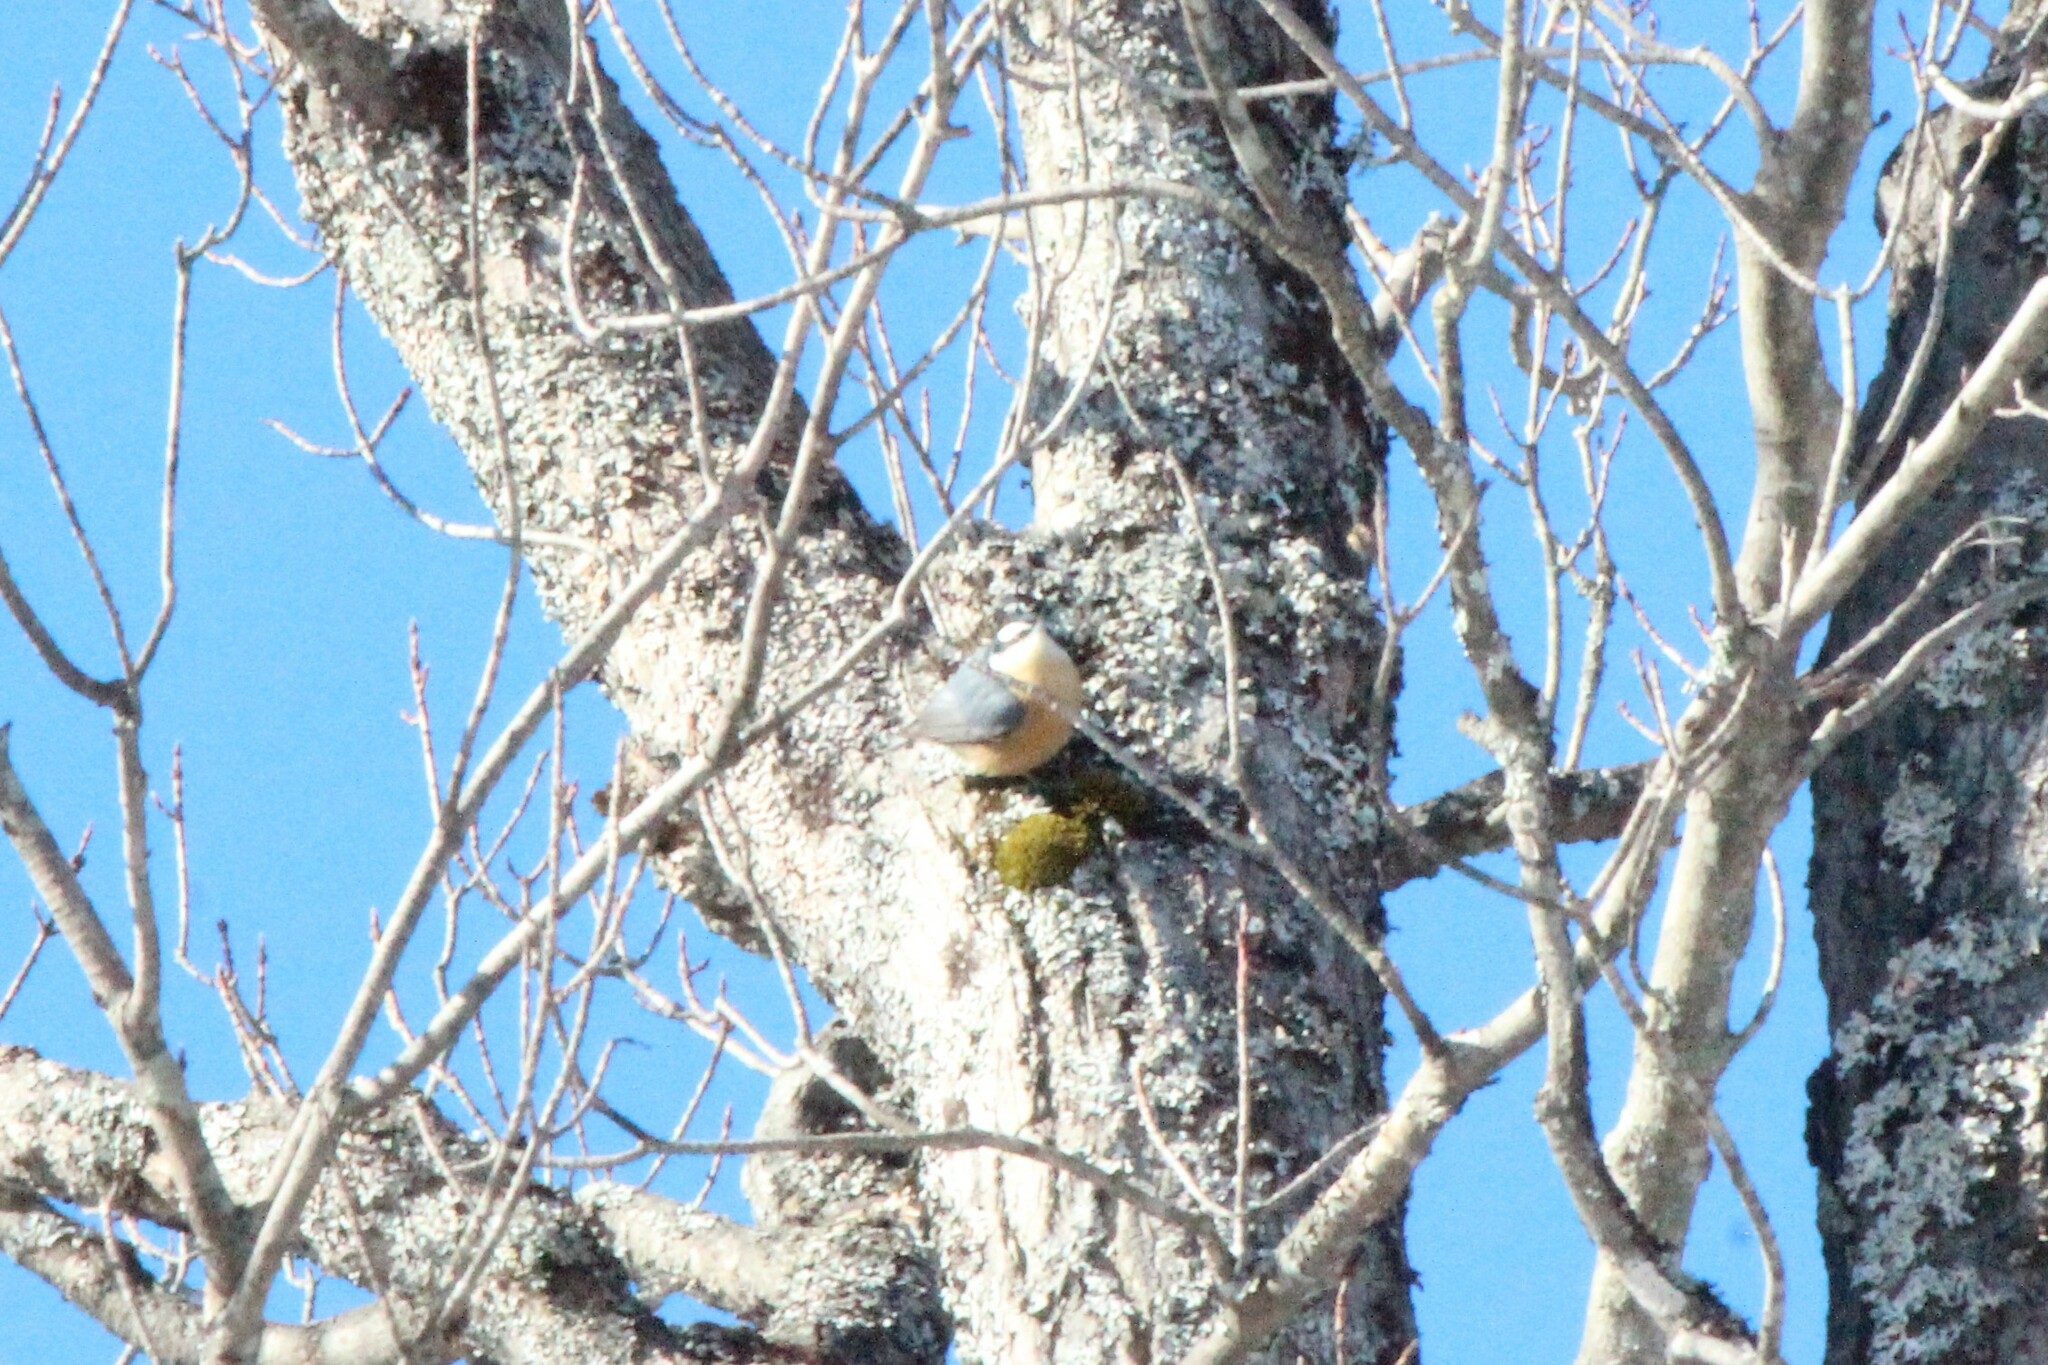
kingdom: Animalia
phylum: Chordata
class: Aves
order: Passeriformes
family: Sittidae
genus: Sitta
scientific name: Sitta canadensis
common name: Red-breasted nuthatch
